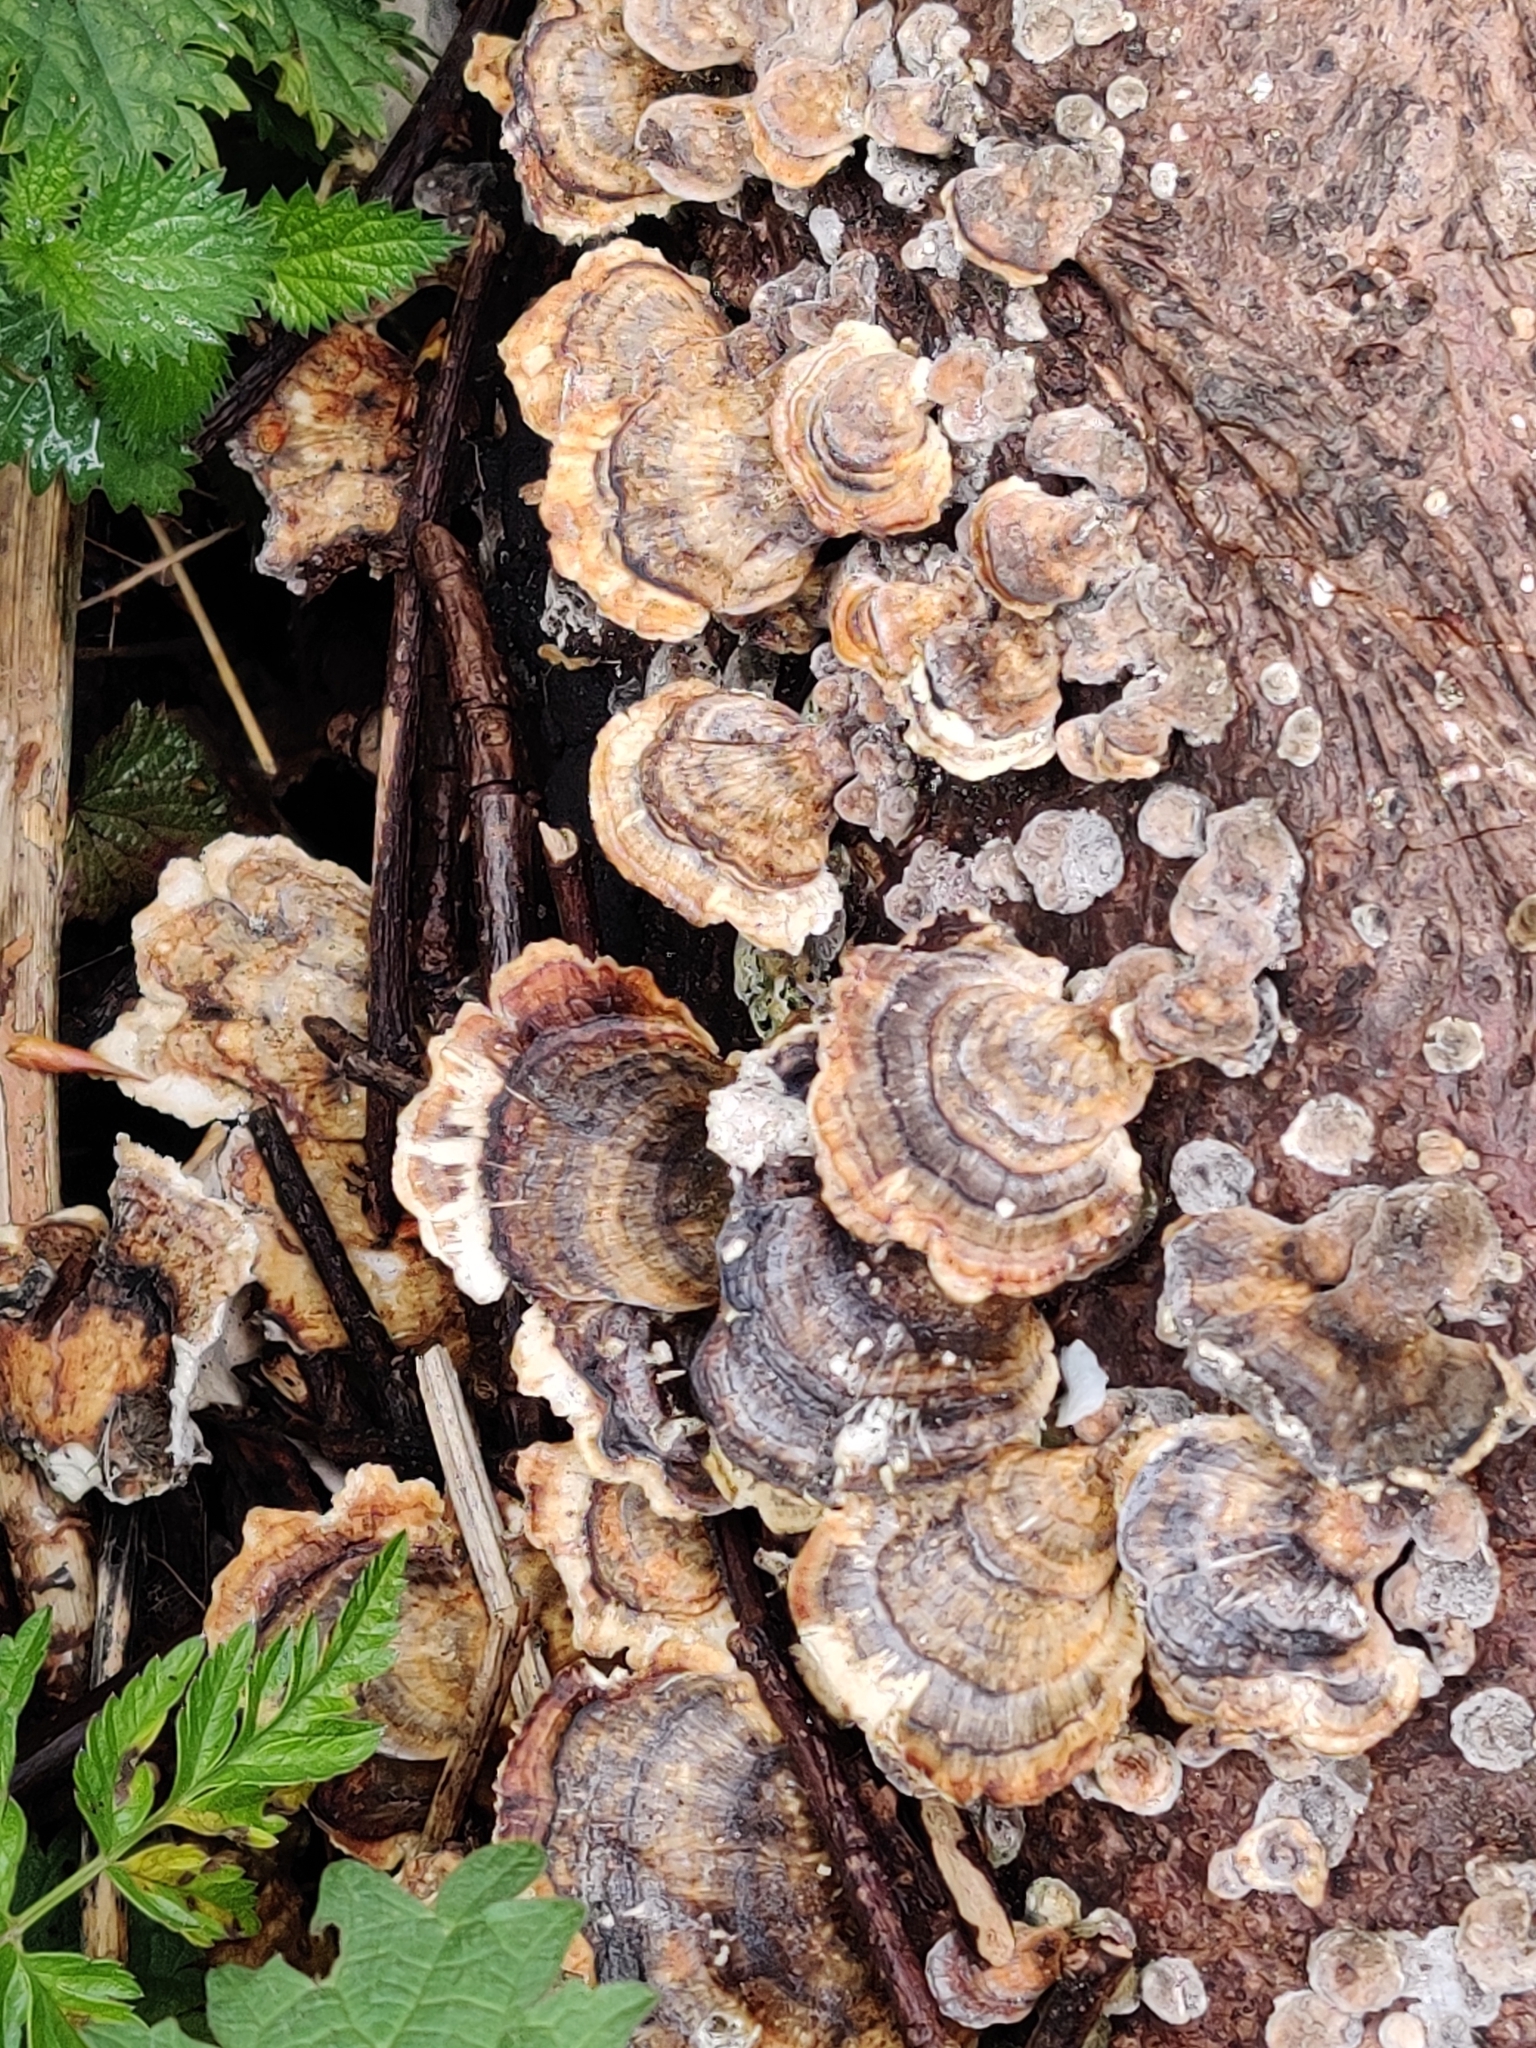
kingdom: Fungi
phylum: Basidiomycota
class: Agaricomycetes
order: Polyporales
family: Polyporaceae
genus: Trametes
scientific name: Trametes versicolor
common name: Turkeytail
